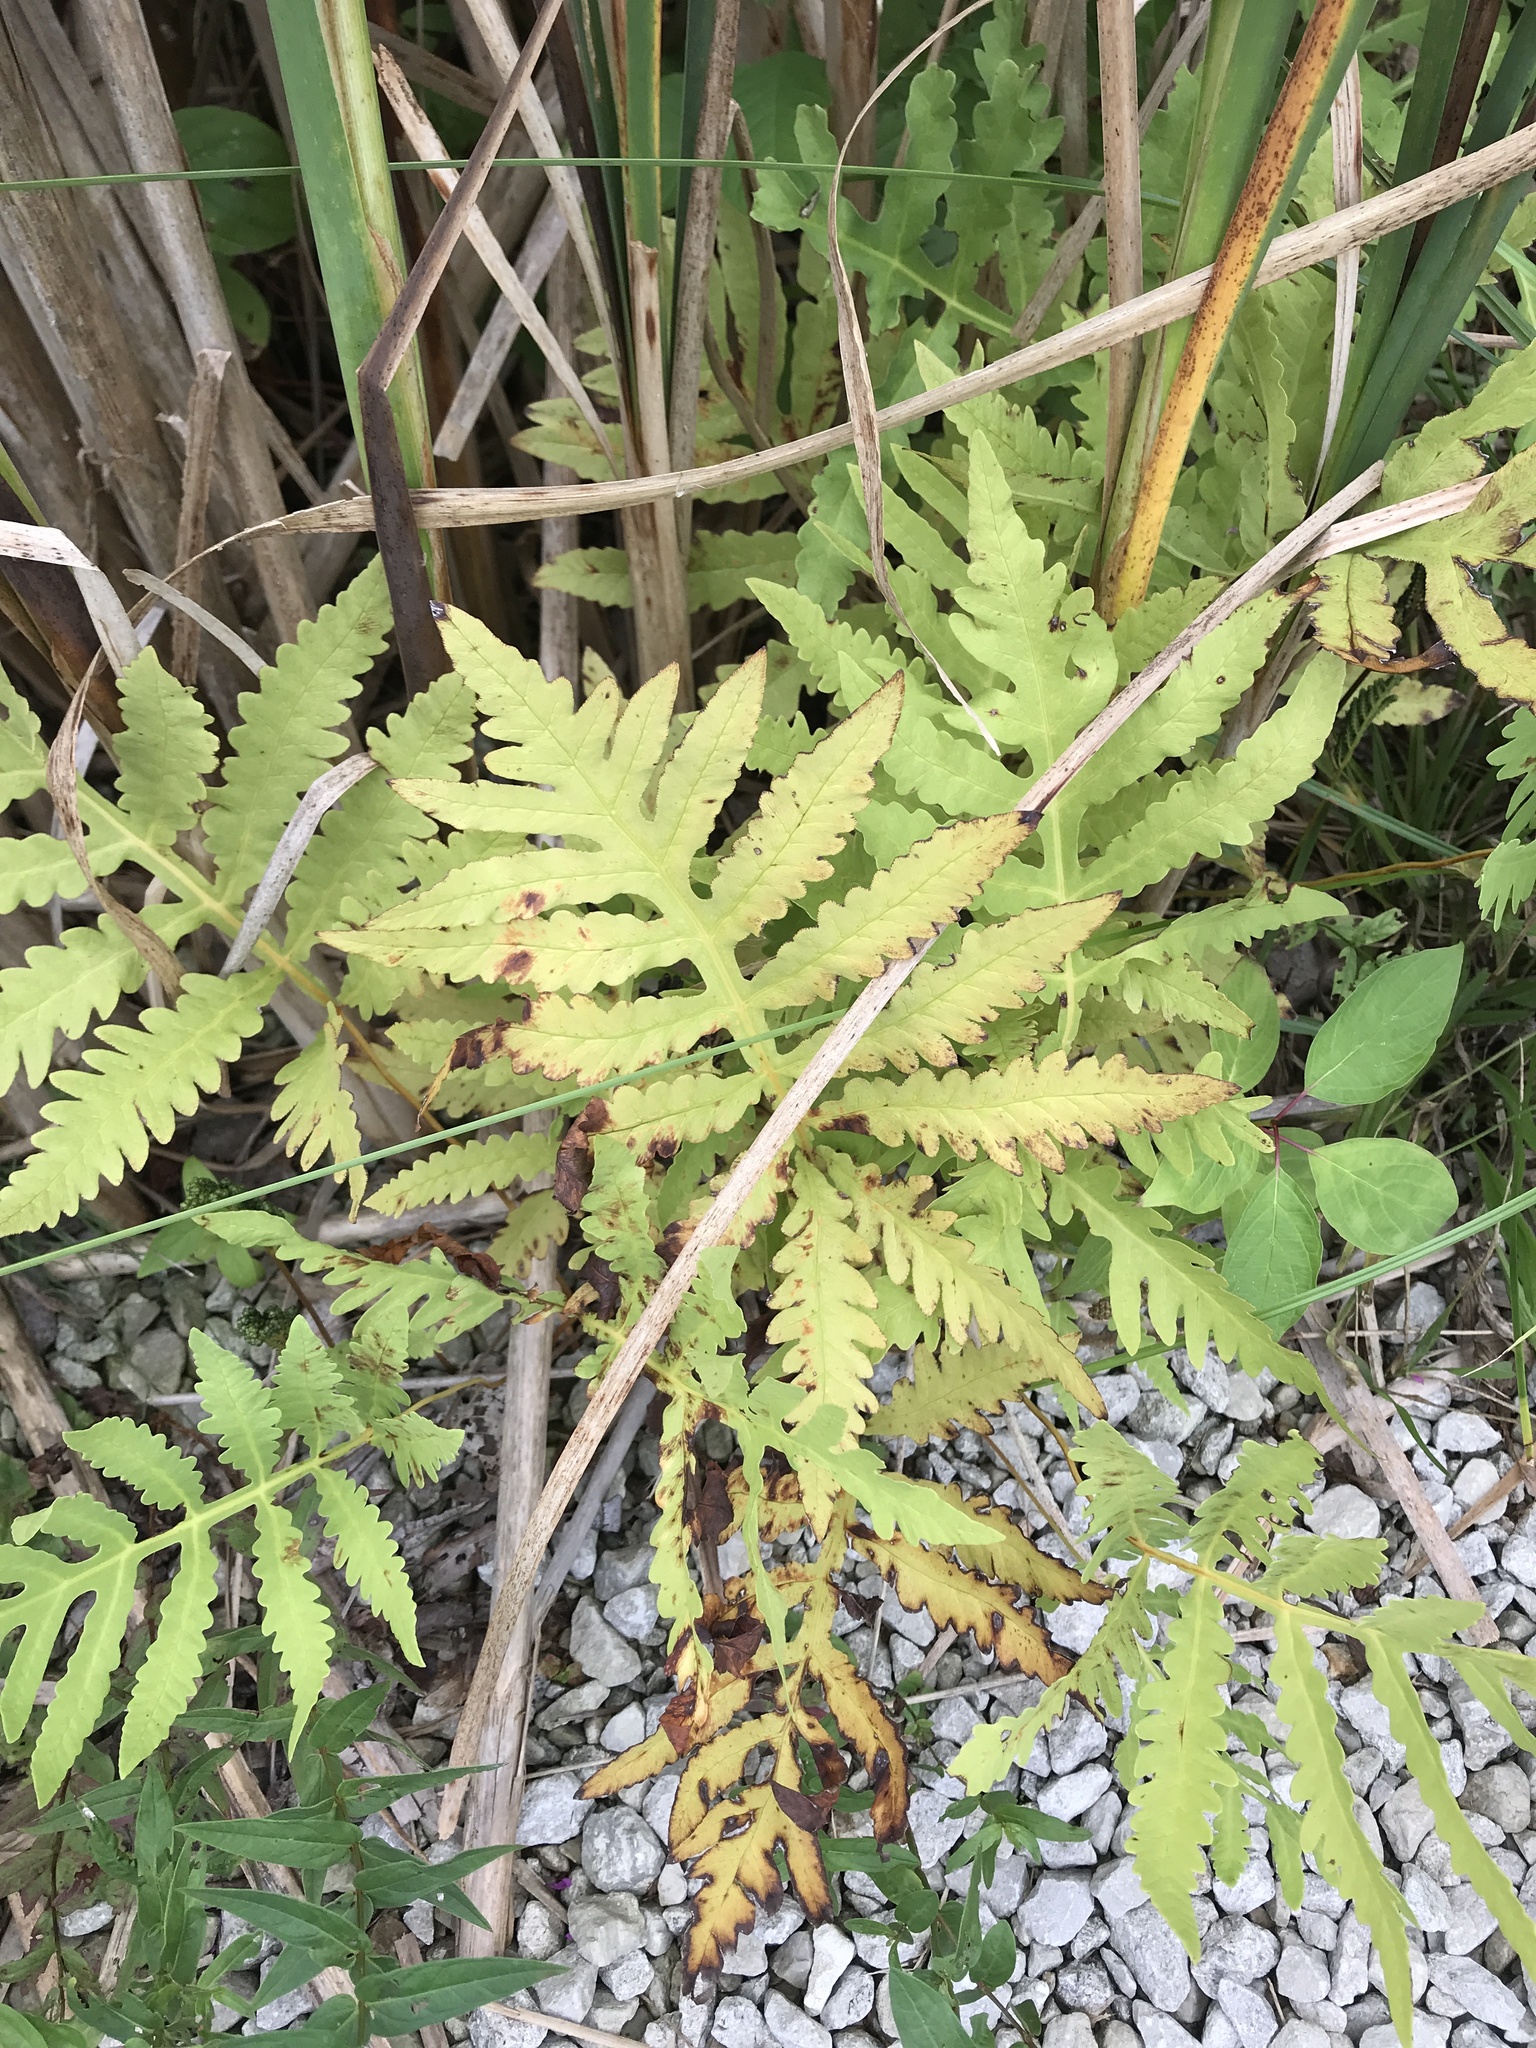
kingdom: Plantae
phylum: Tracheophyta
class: Polypodiopsida
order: Polypodiales
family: Onocleaceae
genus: Onoclea
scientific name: Onoclea sensibilis
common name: Sensitive fern
